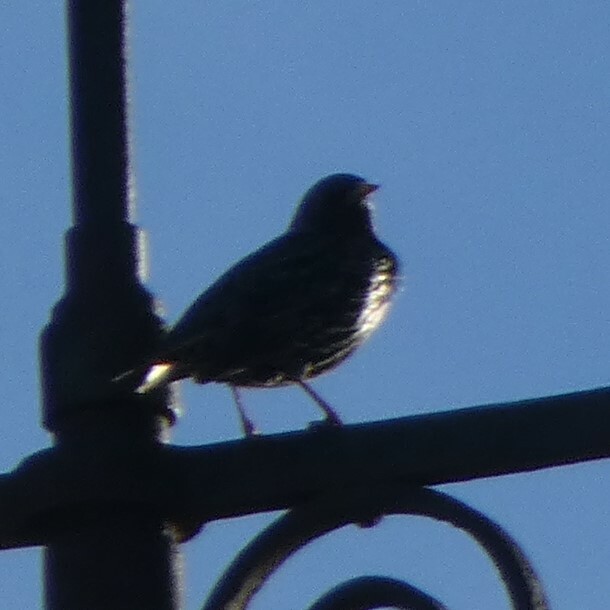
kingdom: Animalia
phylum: Chordata
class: Aves
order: Passeriformes
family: Sturnidae
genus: Sturnus
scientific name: Sturnus vulgaris
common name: Common starling
